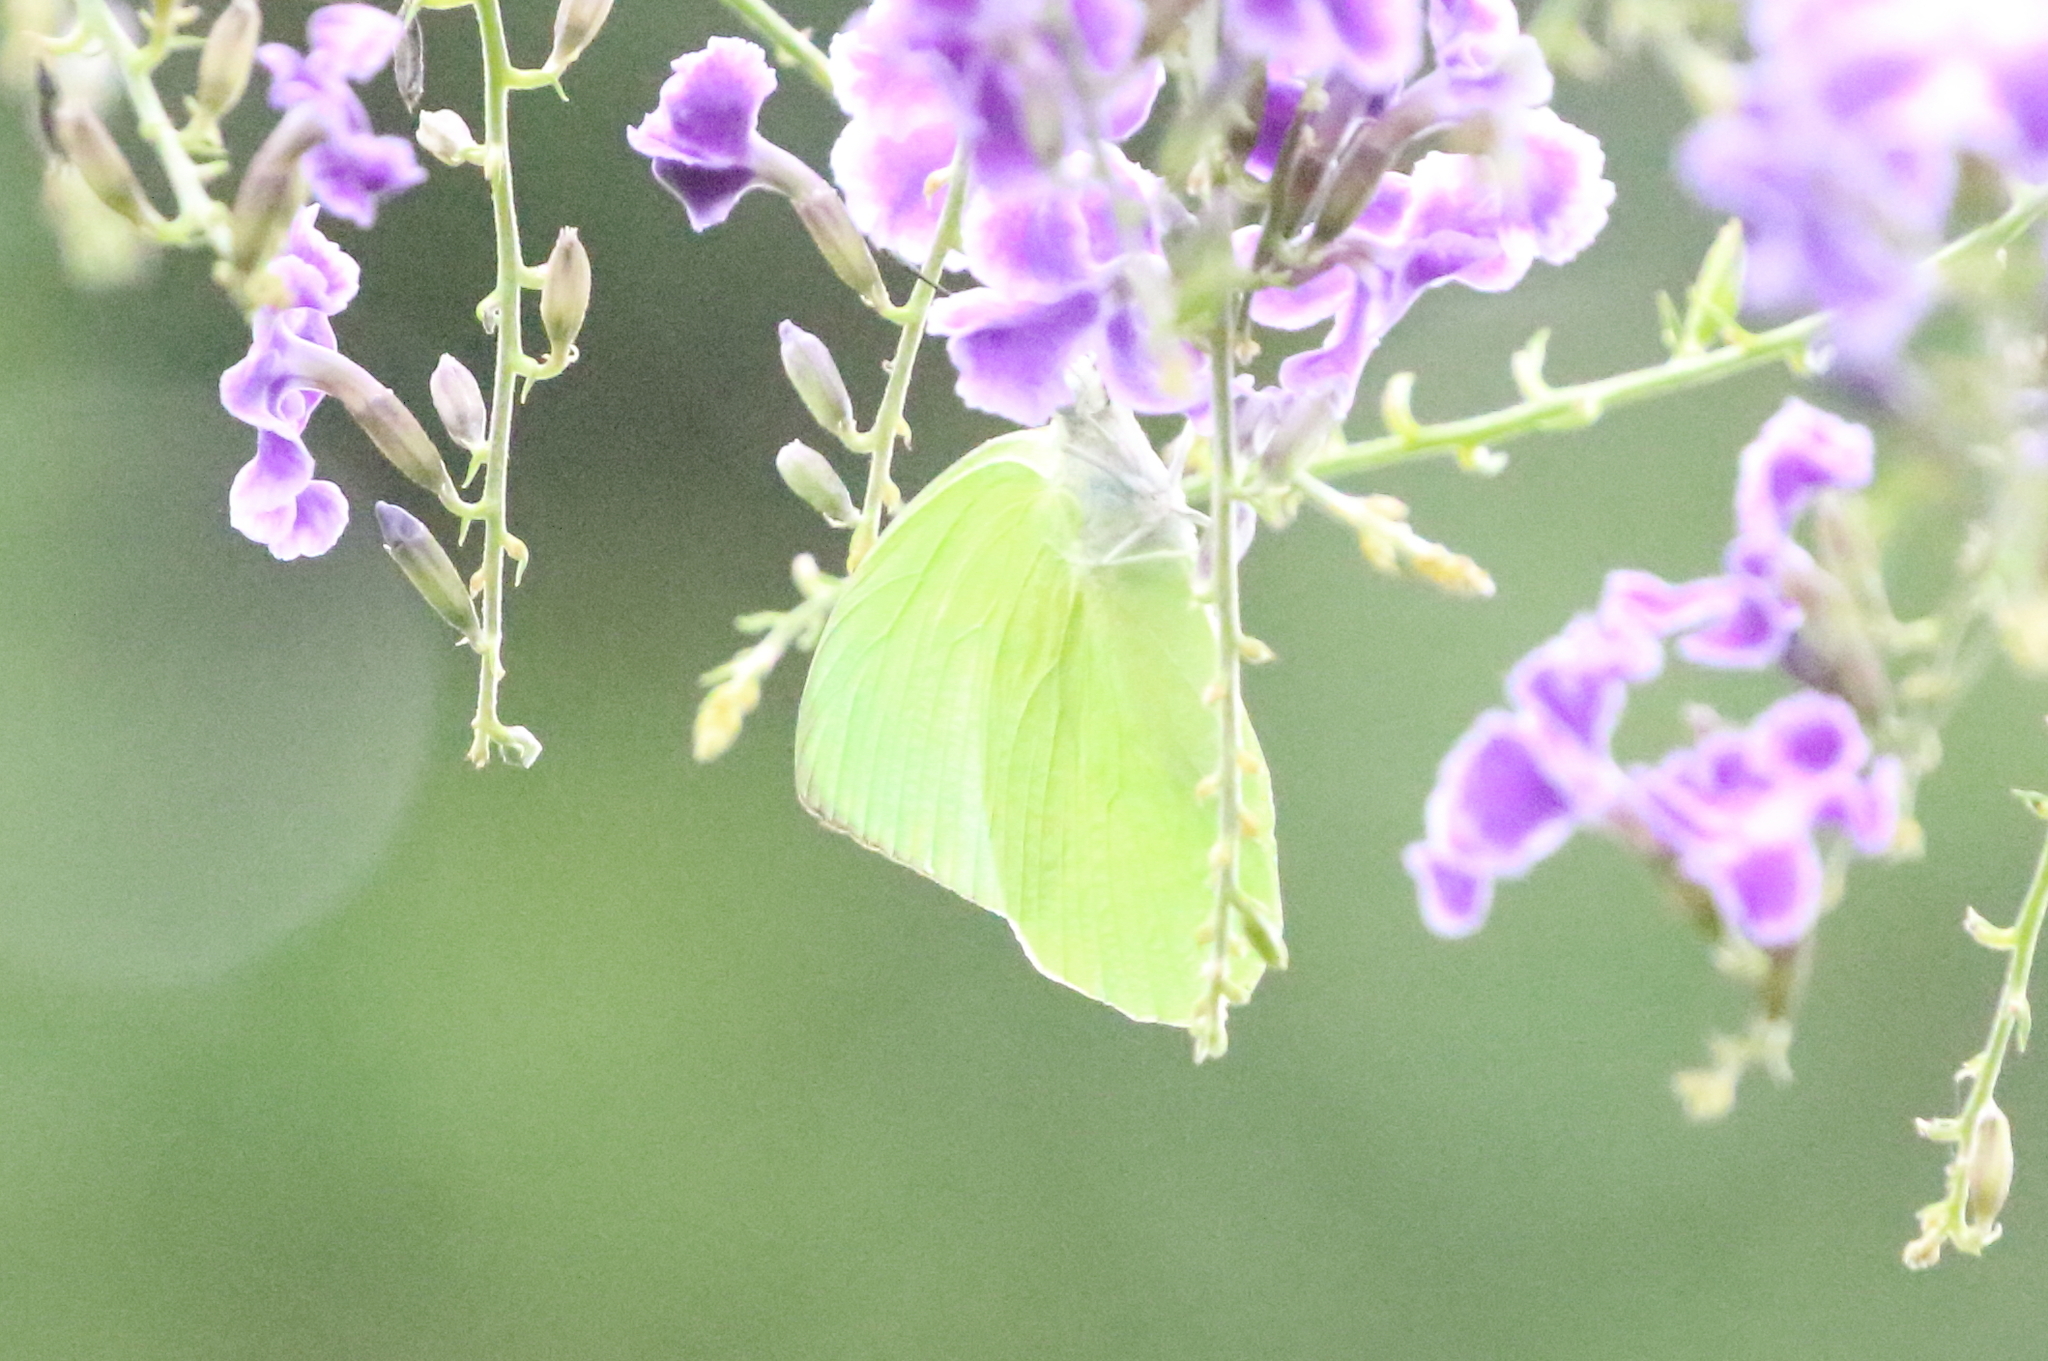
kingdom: Animalia
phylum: Arthropoda
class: Insecta
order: Lepidoptera
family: Pieridae
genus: Catopsilia
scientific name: Catopsilia pomona
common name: Common emigrant
